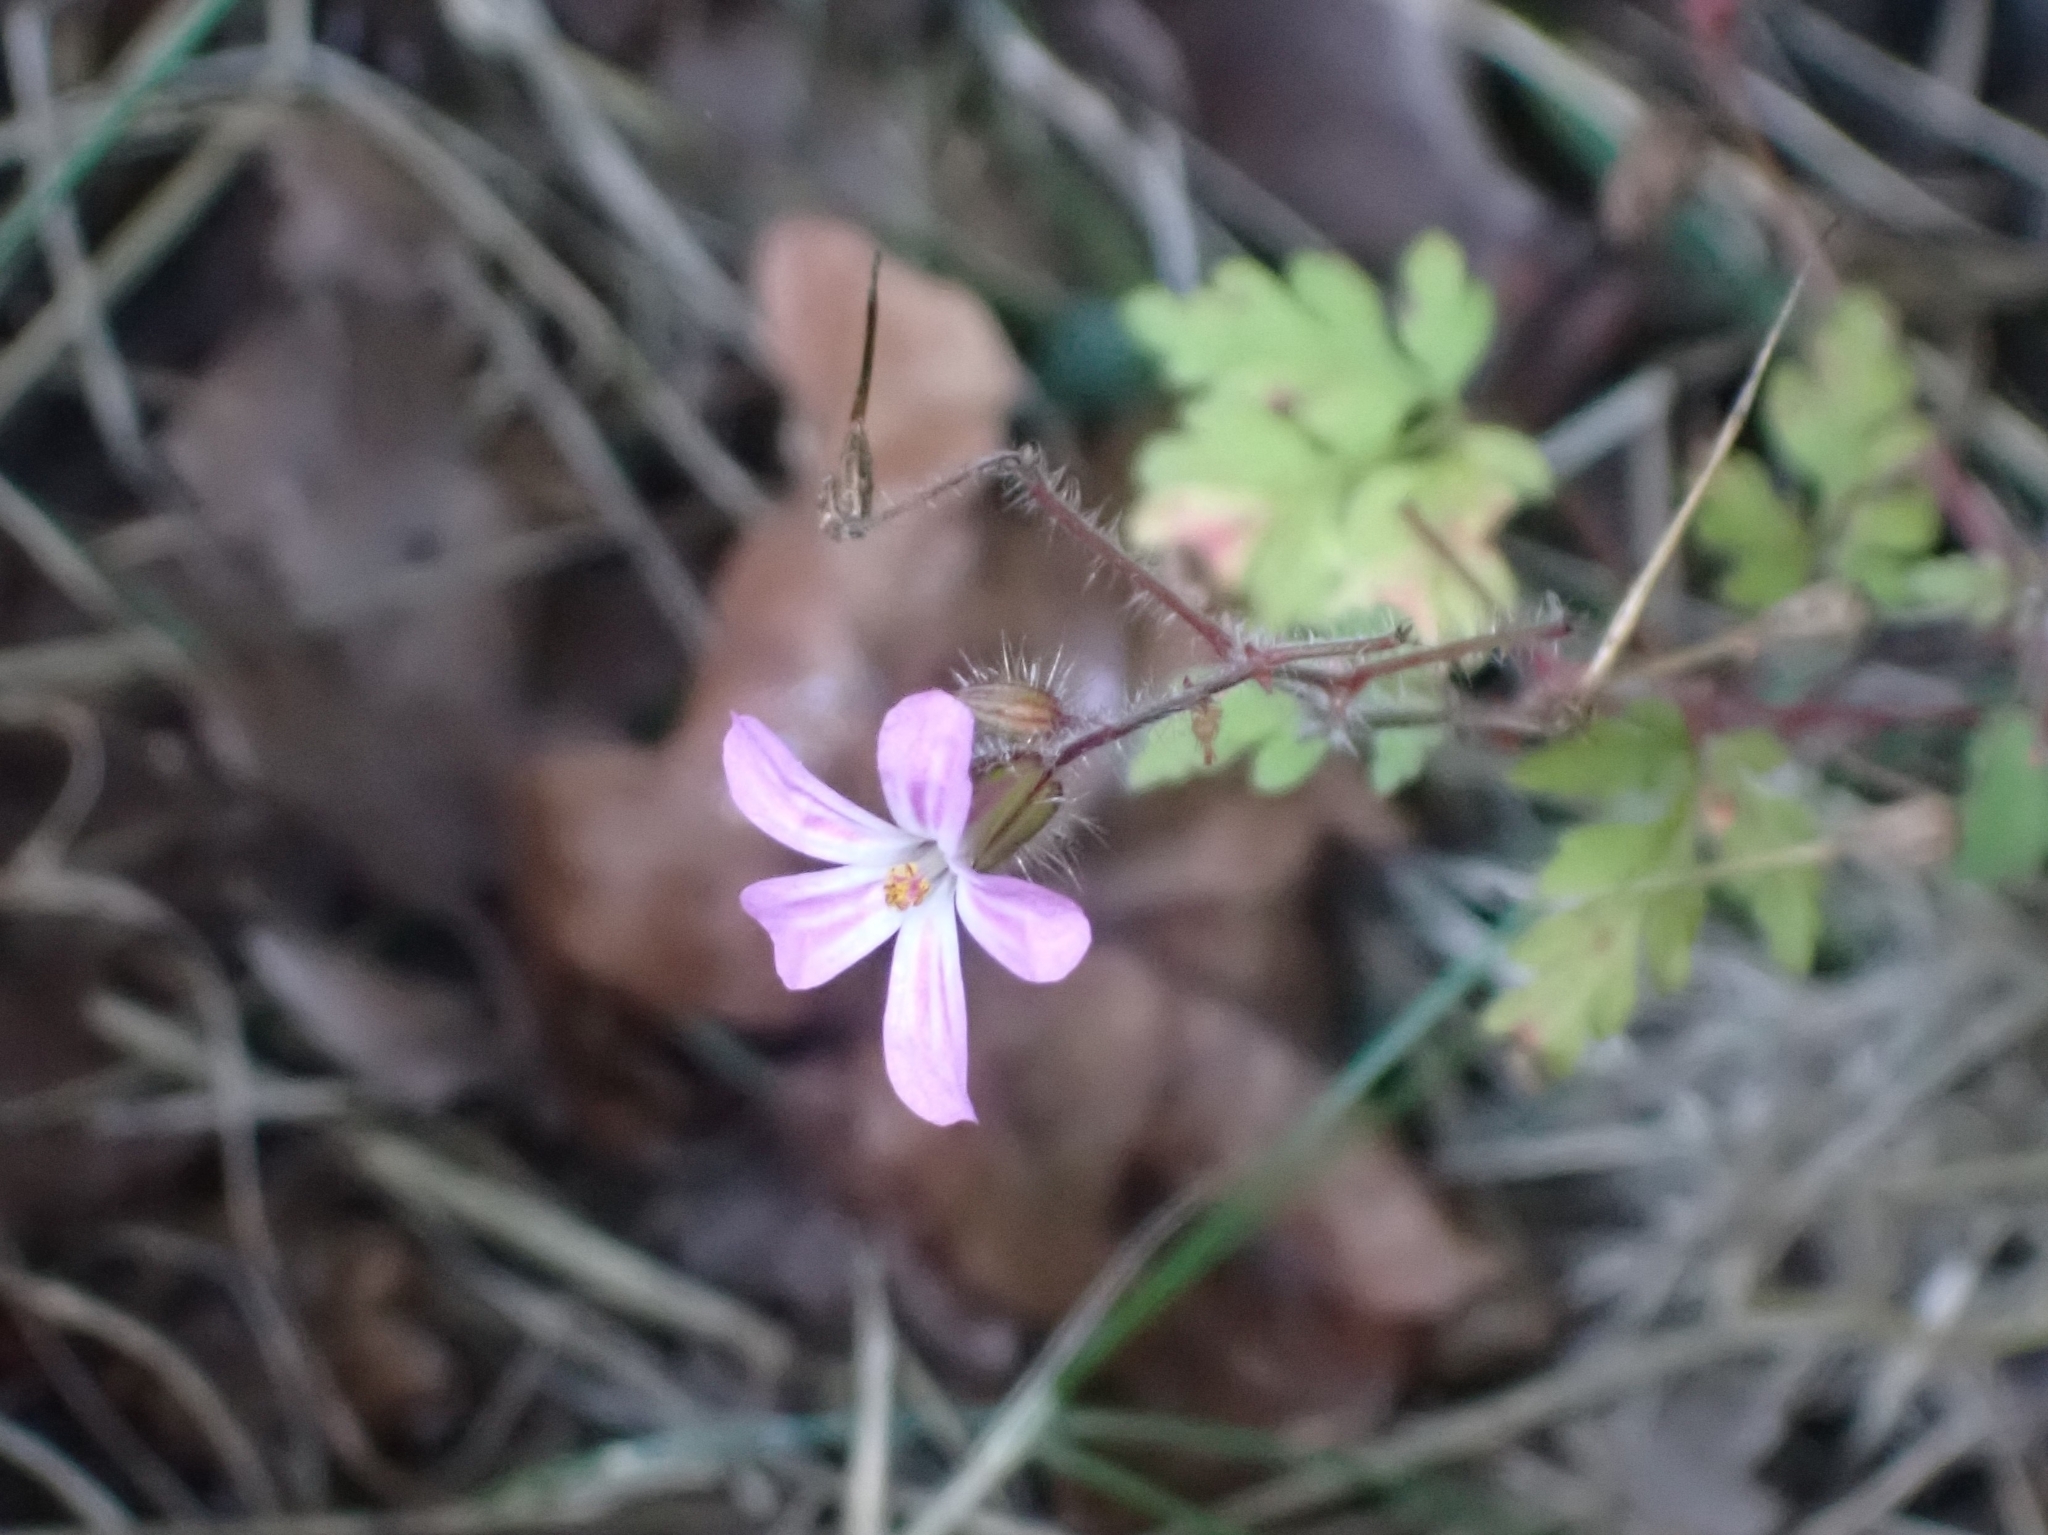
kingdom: Plantae
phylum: Tracheophyta
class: Magnoliopsida
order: Geraniales
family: Geraniaceae
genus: Geranium
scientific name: Geranium robertianum
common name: Herb-robert
